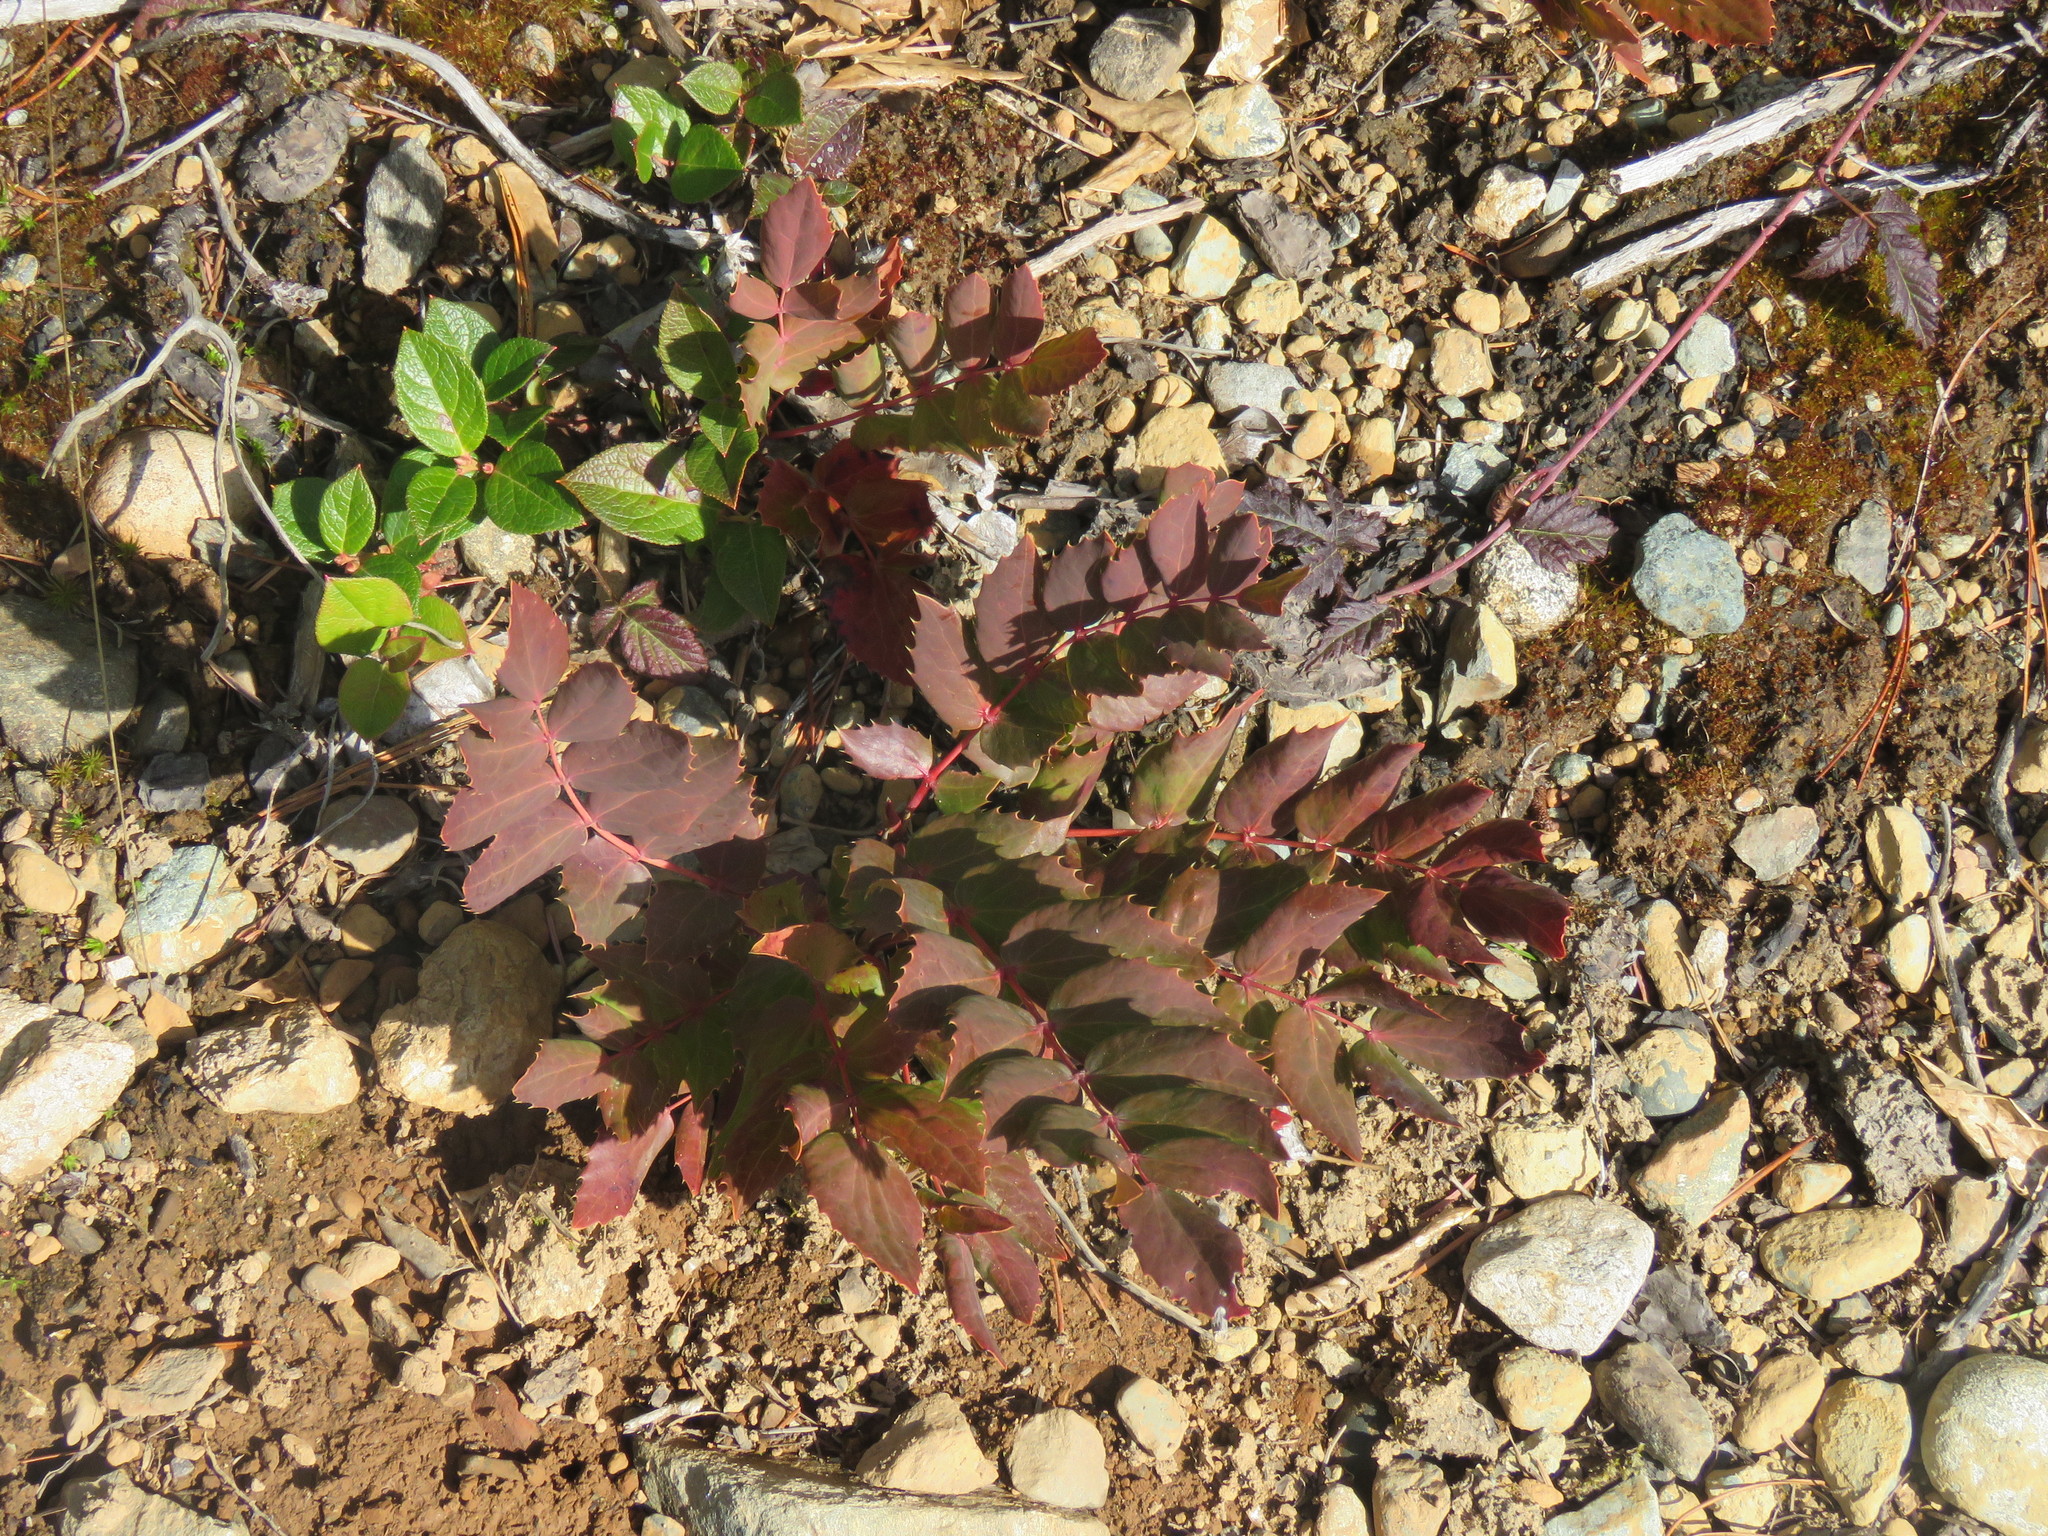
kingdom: Plantae
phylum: Tracheophyta
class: Magnoliopsida
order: Ranunculales
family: Berberidaceae
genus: Mahonia
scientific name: Mahonia nervosa
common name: Cascade oregon-grape
